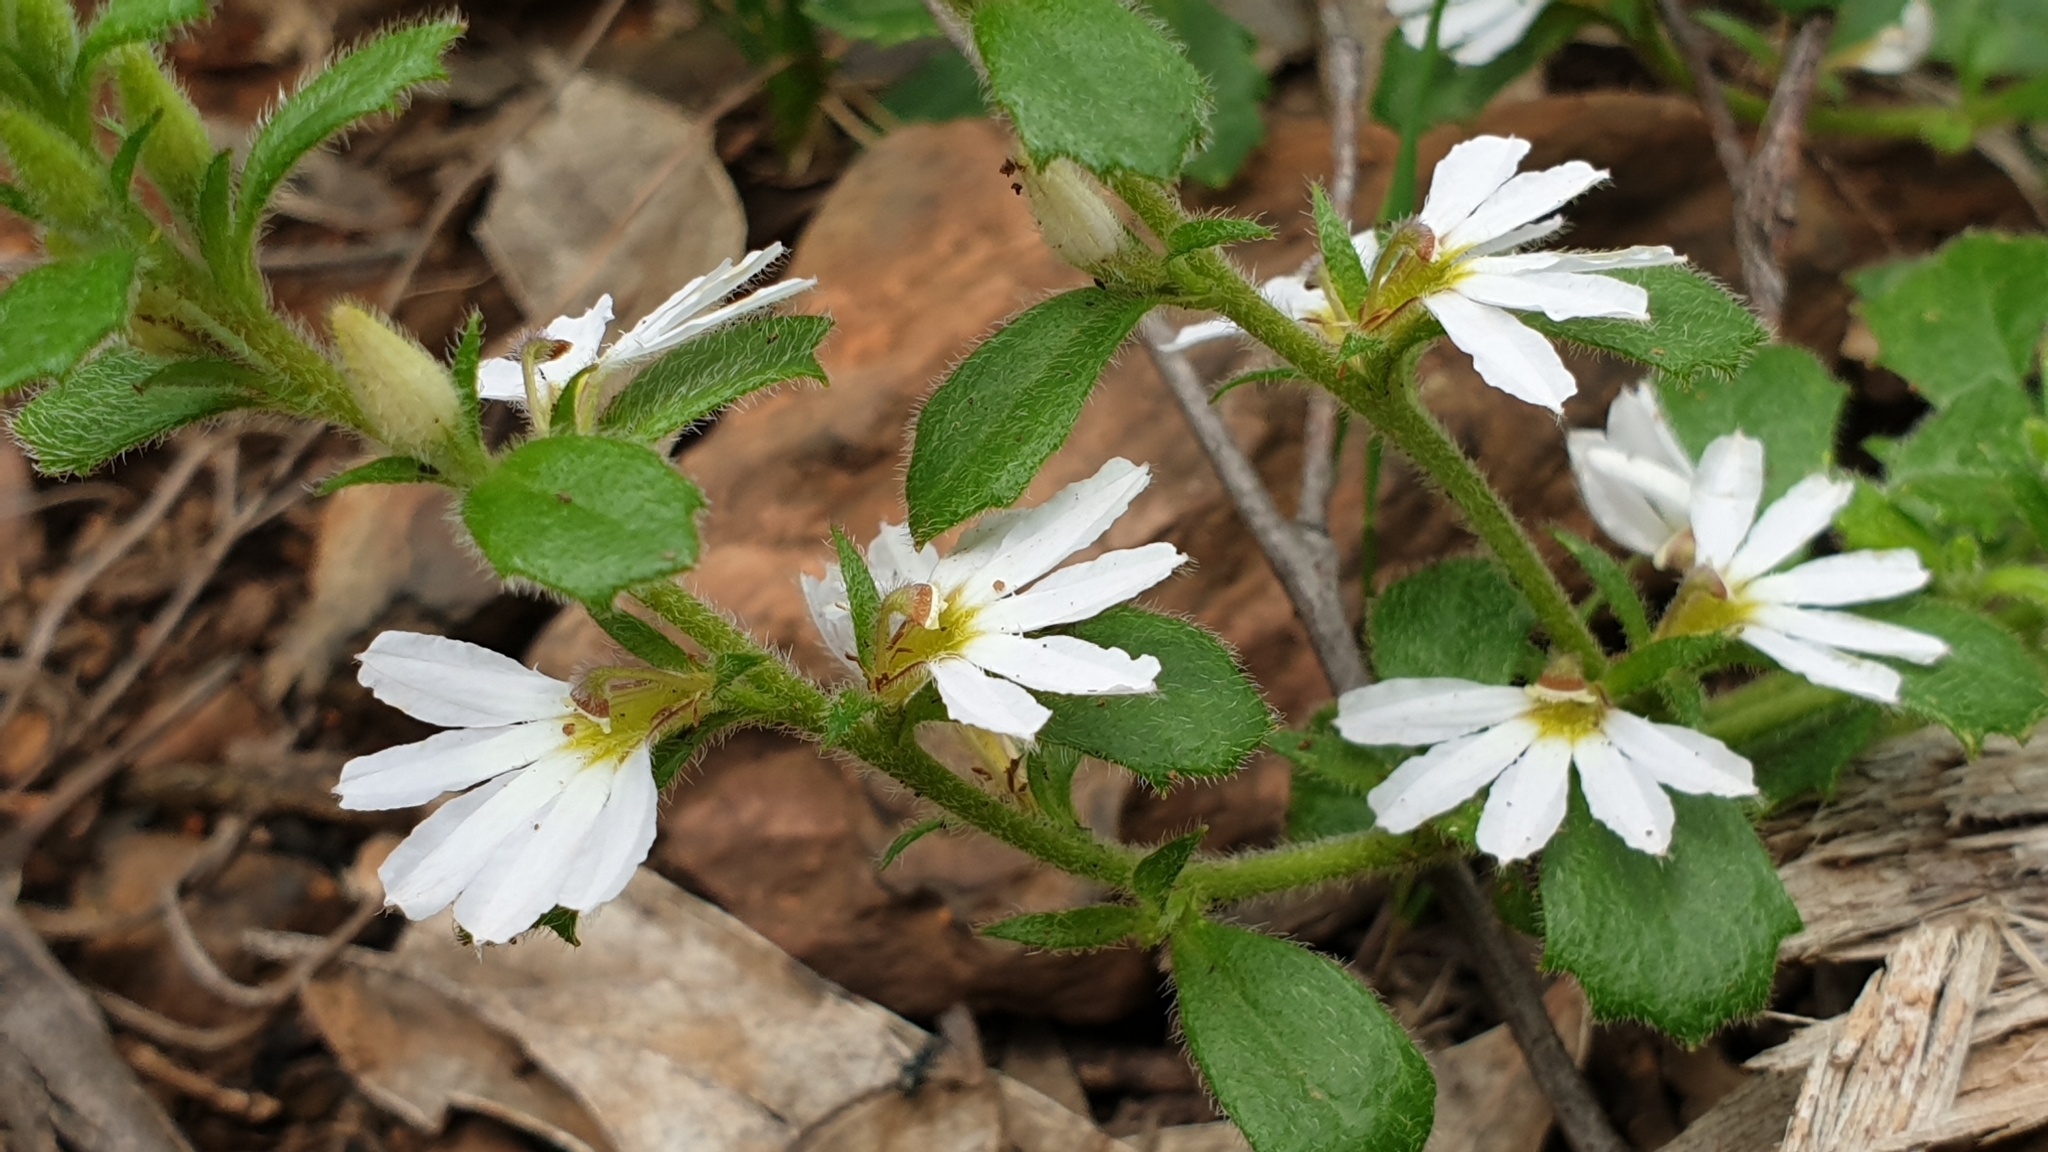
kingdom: Plantae
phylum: Tracheophyta
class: Magnoliopsida
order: Asterales
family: Goodeniaceae
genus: Scaevola
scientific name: Scaevola albida
